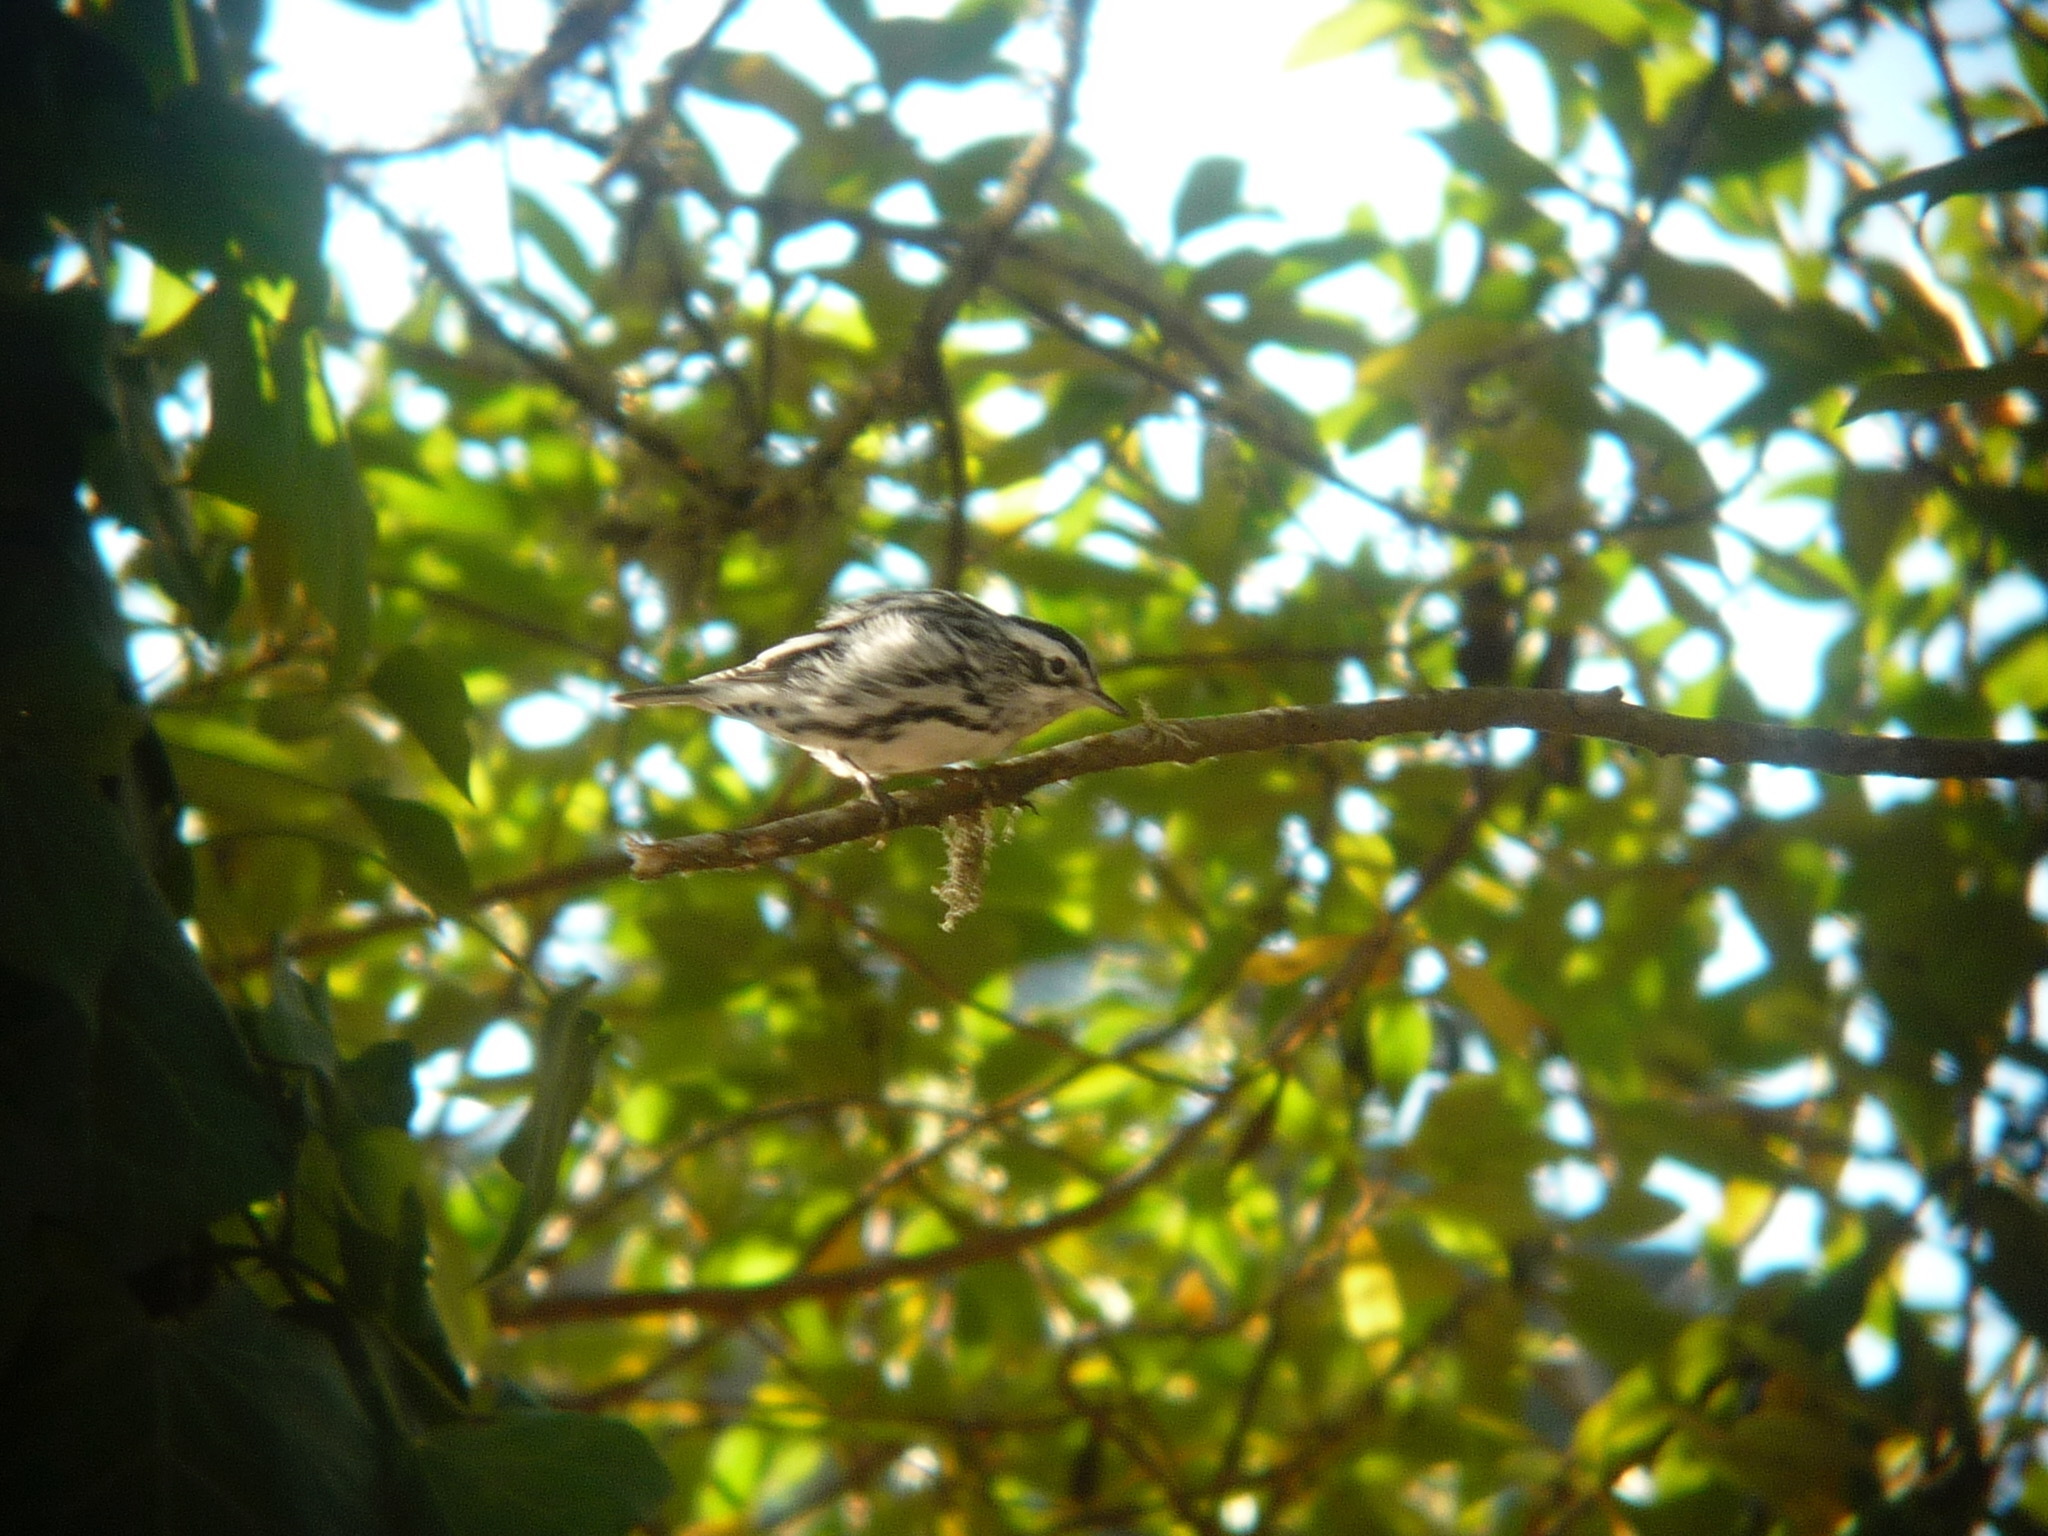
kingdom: Animalia
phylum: Chordata
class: Aves
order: Passeriformes
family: Parulidae
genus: Mniotilta
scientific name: Mniotilta varia
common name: Black-and-white warbler
